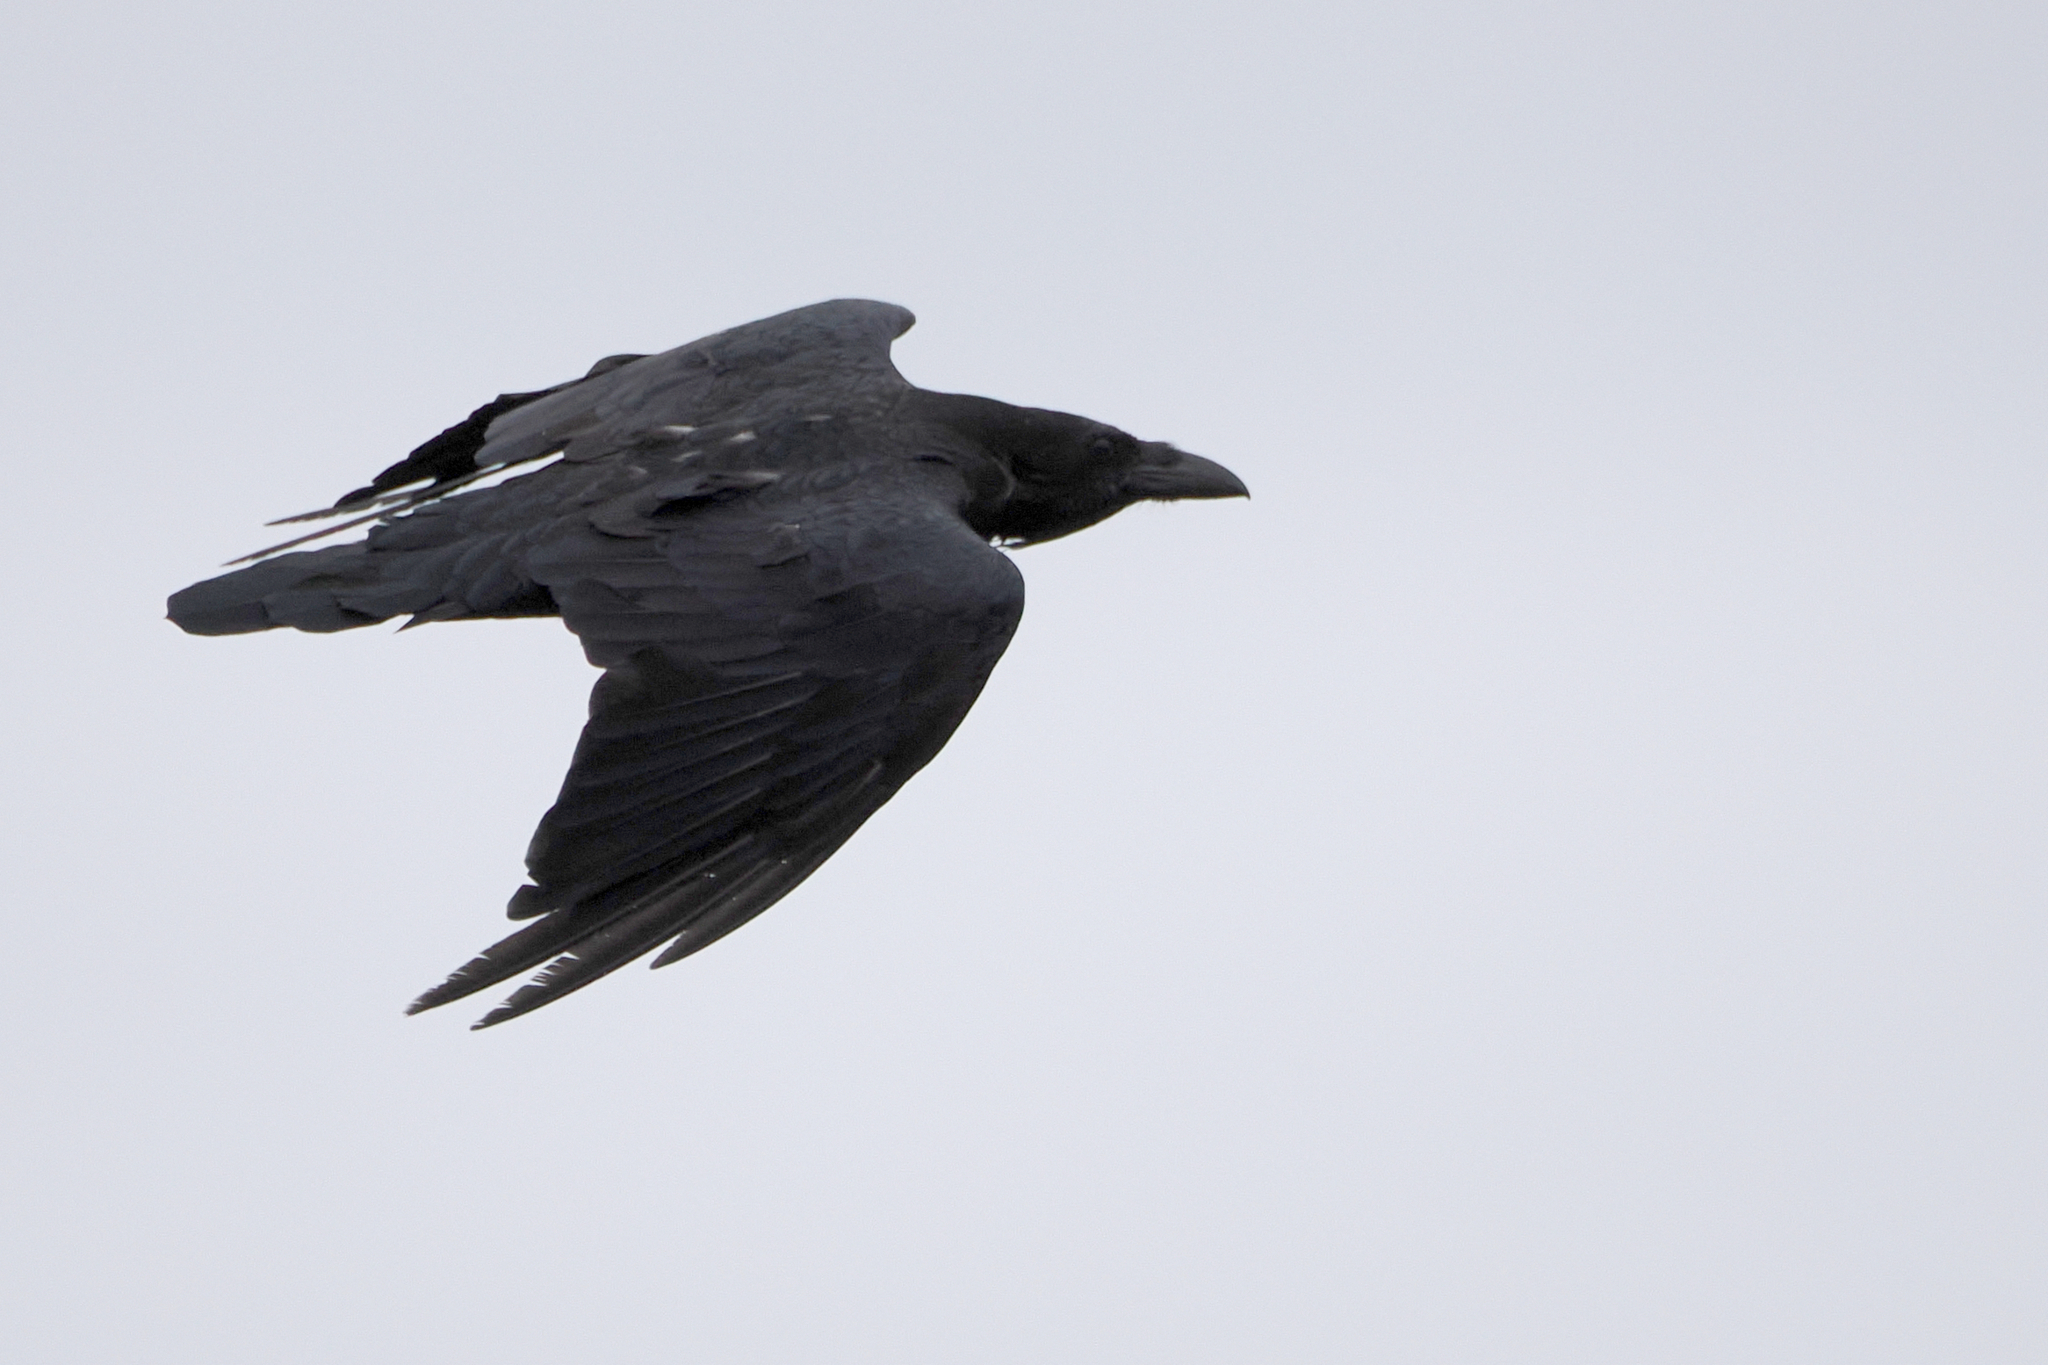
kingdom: Animalia
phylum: Chordata
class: Aves
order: Passeriformes
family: Corvidae
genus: Corvus
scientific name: Corvus corax
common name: Common raven
